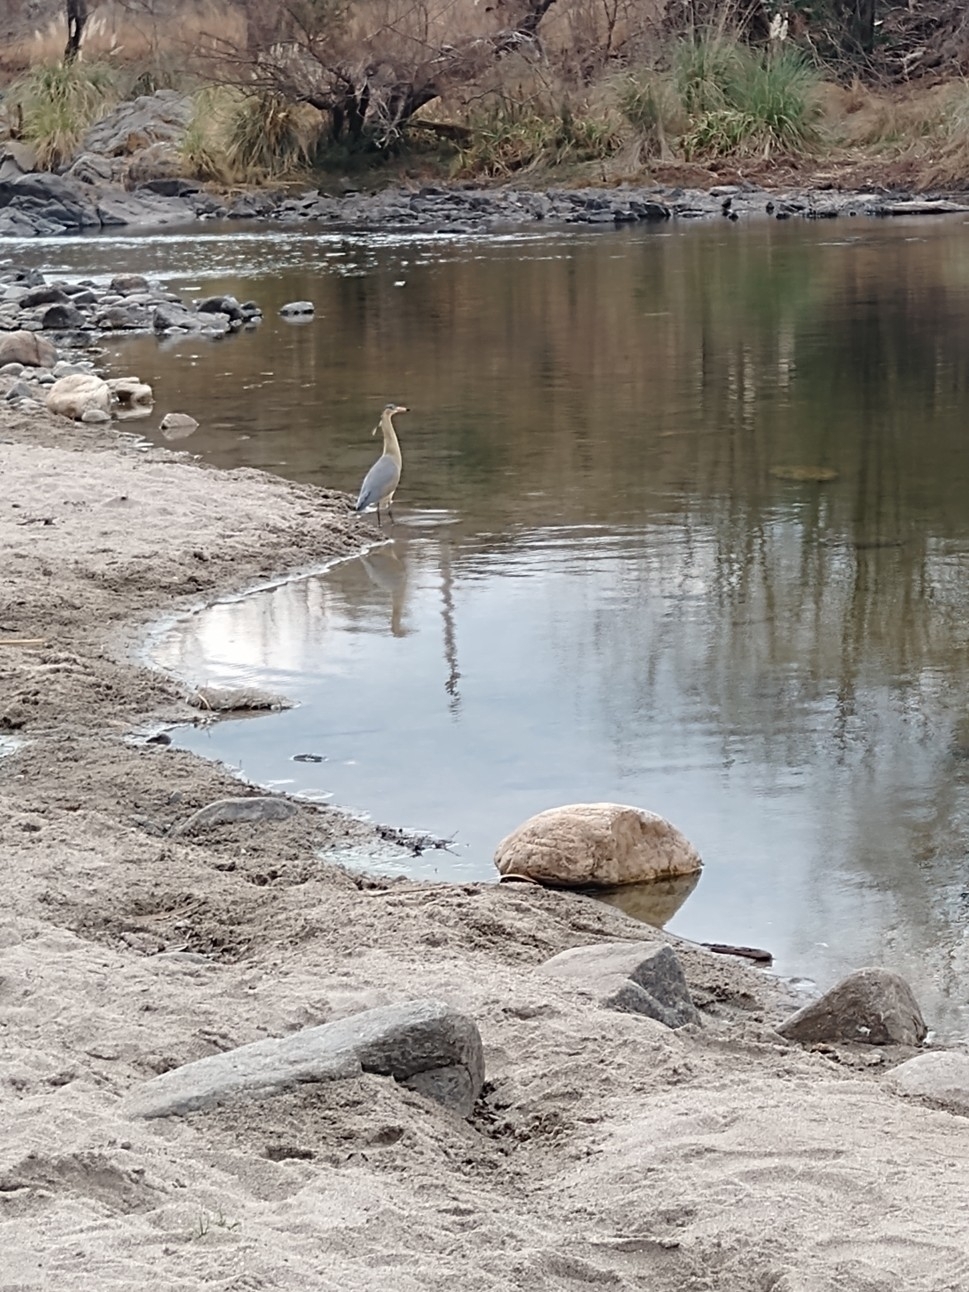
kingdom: Animalia
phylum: Chordata
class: Aves
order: Pelecaniformes
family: Ardeidae
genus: Syrigma
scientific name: Syrigma sibilatrix
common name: Whistling heron
